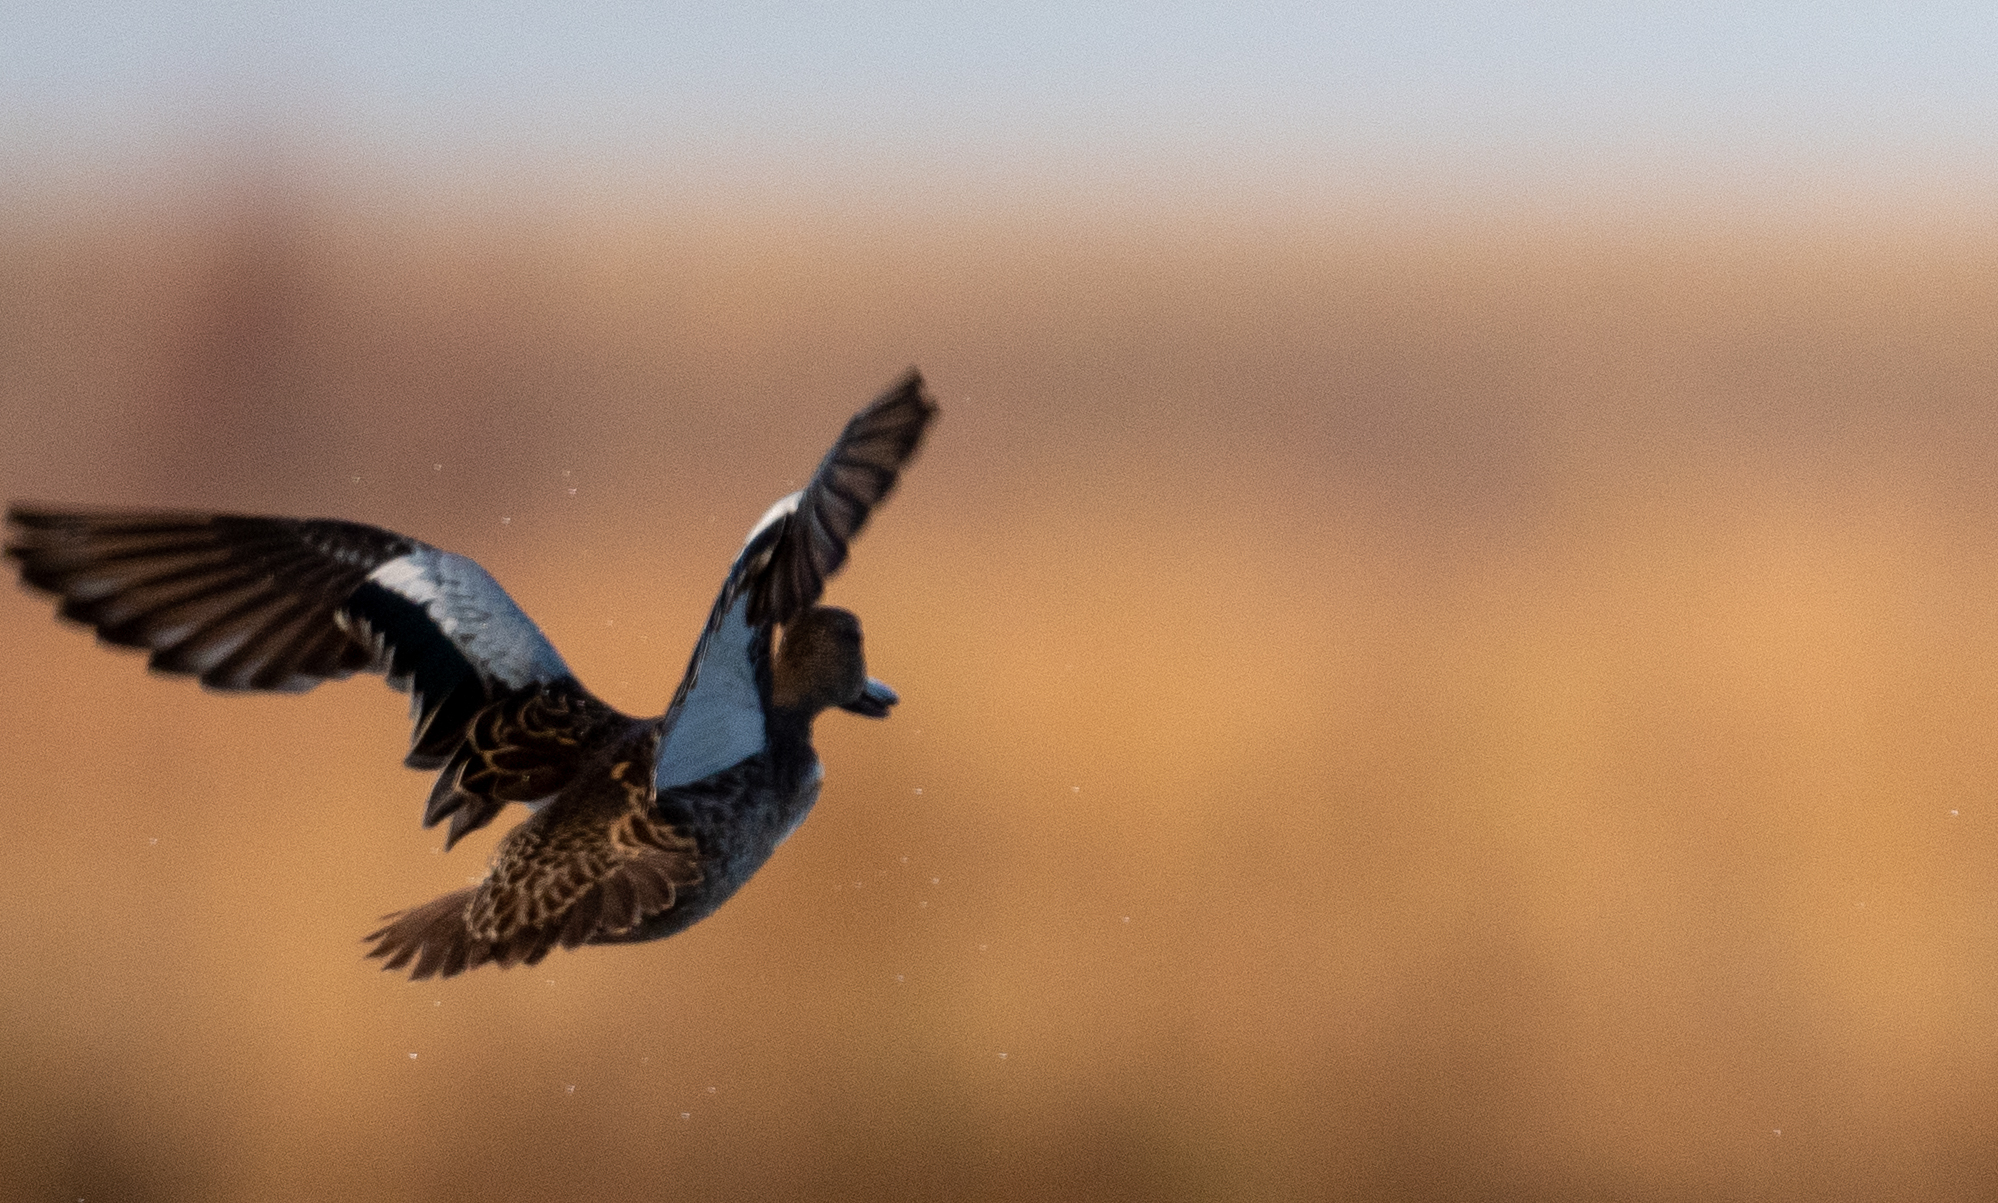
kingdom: Animalia
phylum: Chordata
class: Aves
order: Anseriformes
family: Anatidae
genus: Spatula
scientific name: Spatula cyanoptera
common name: Cinnamon teal
